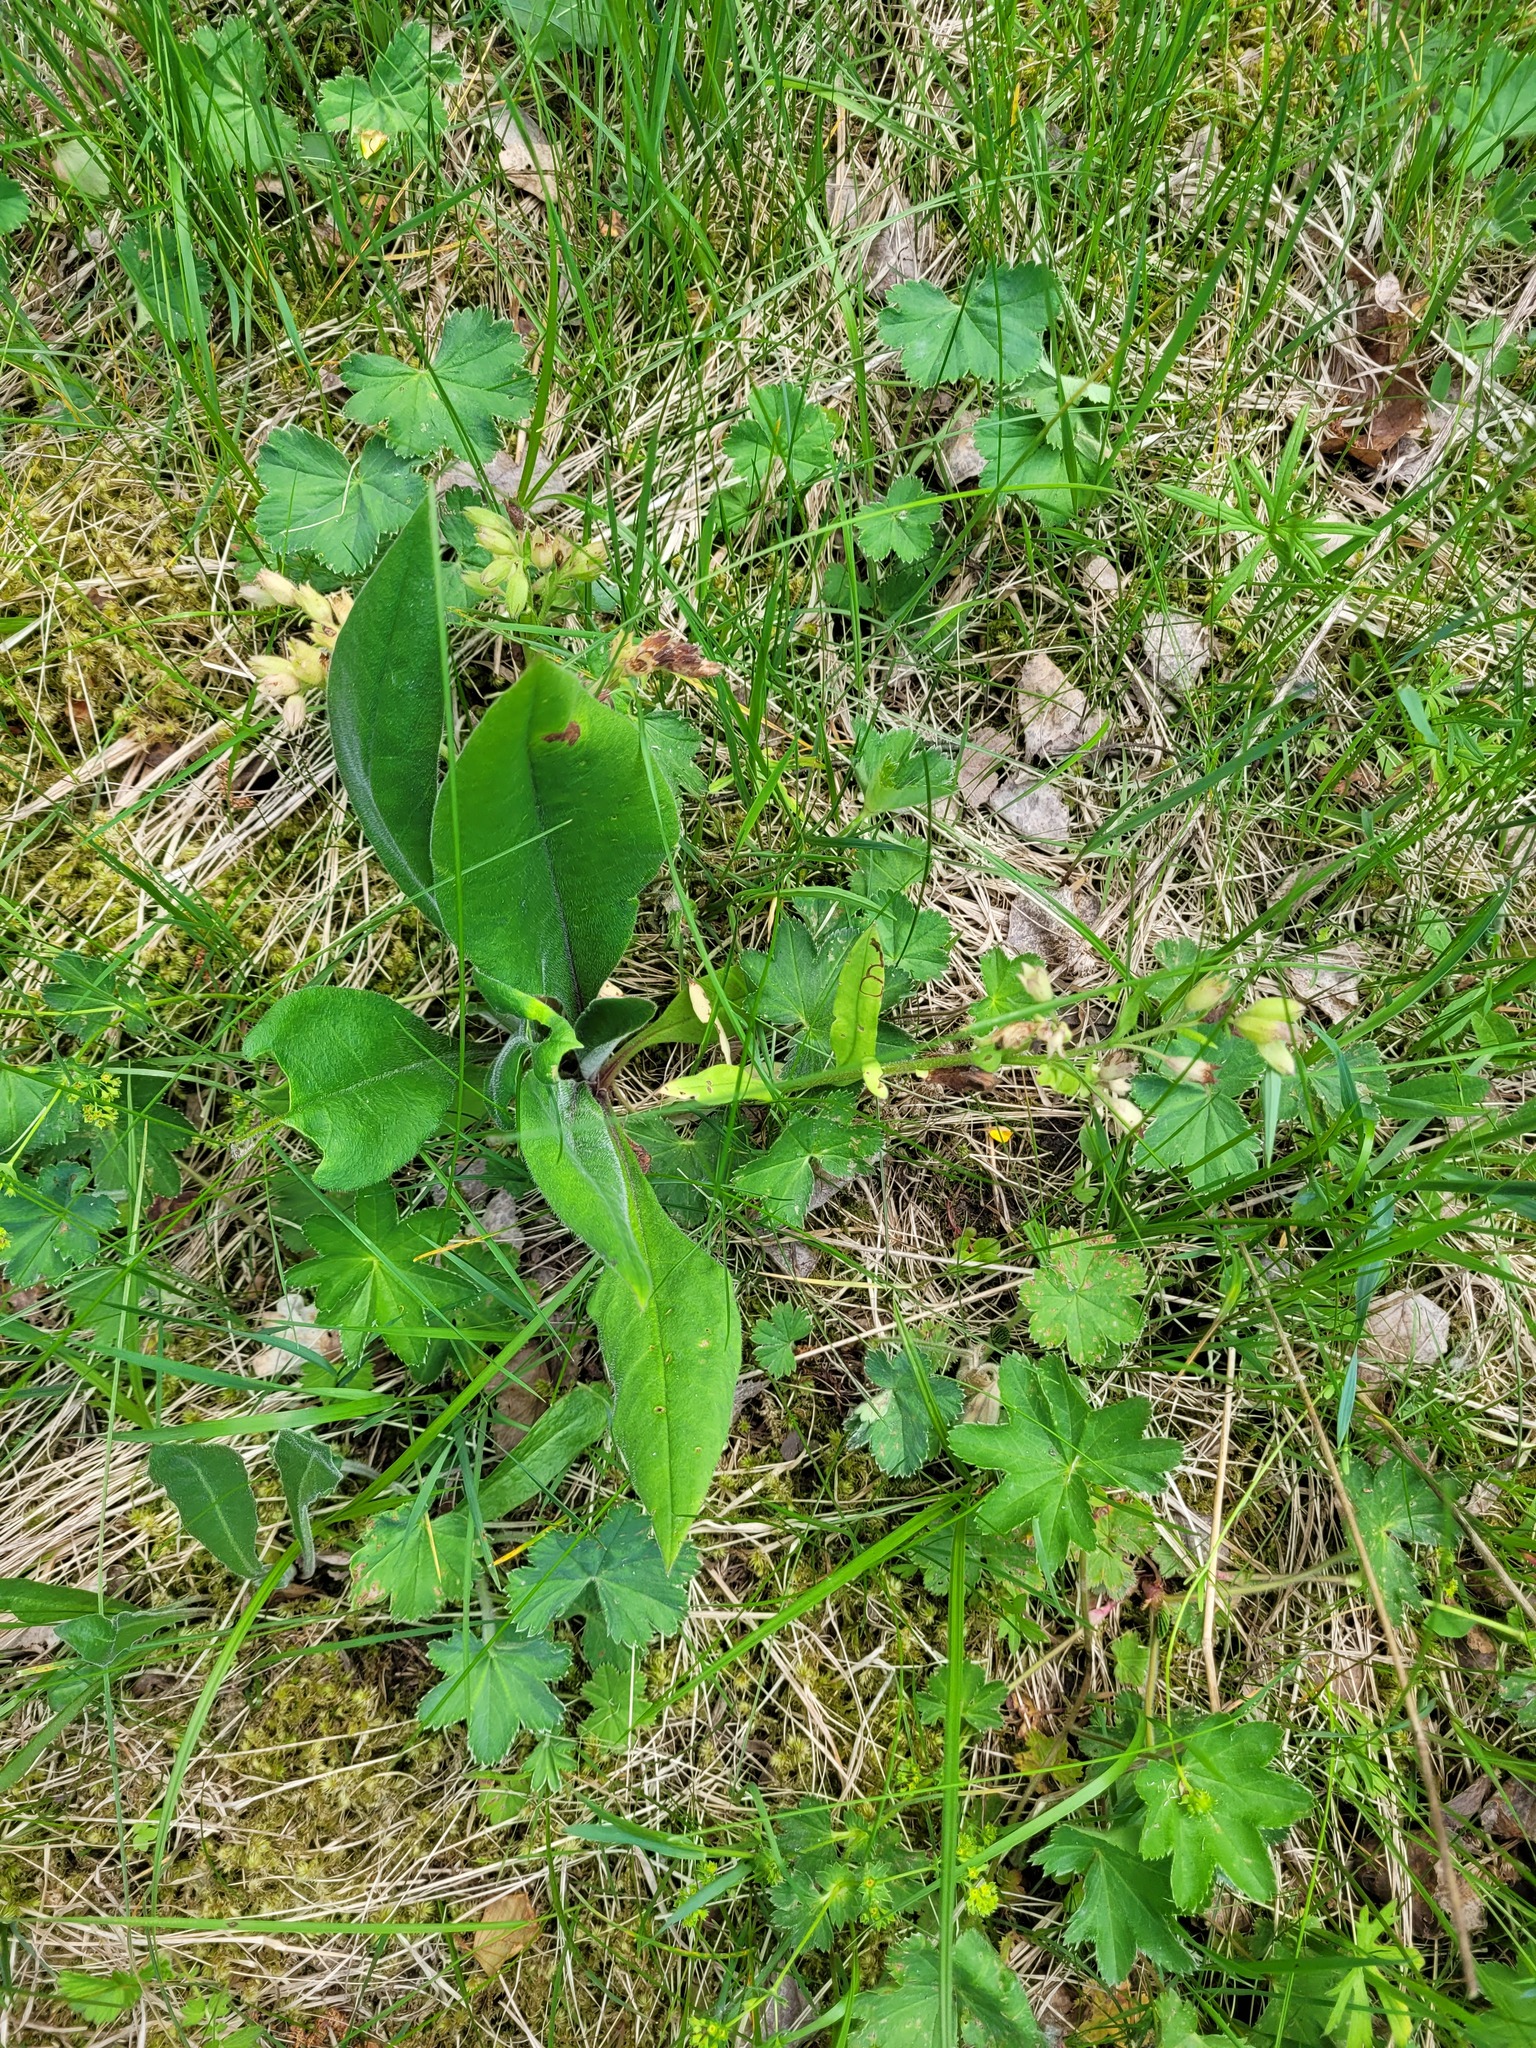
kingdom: Plantae
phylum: Tracheophyta
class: Magnoliopsida
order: Boraginales
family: Boraginaceae
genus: Pulmonaria
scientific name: Pulmonaria notha
